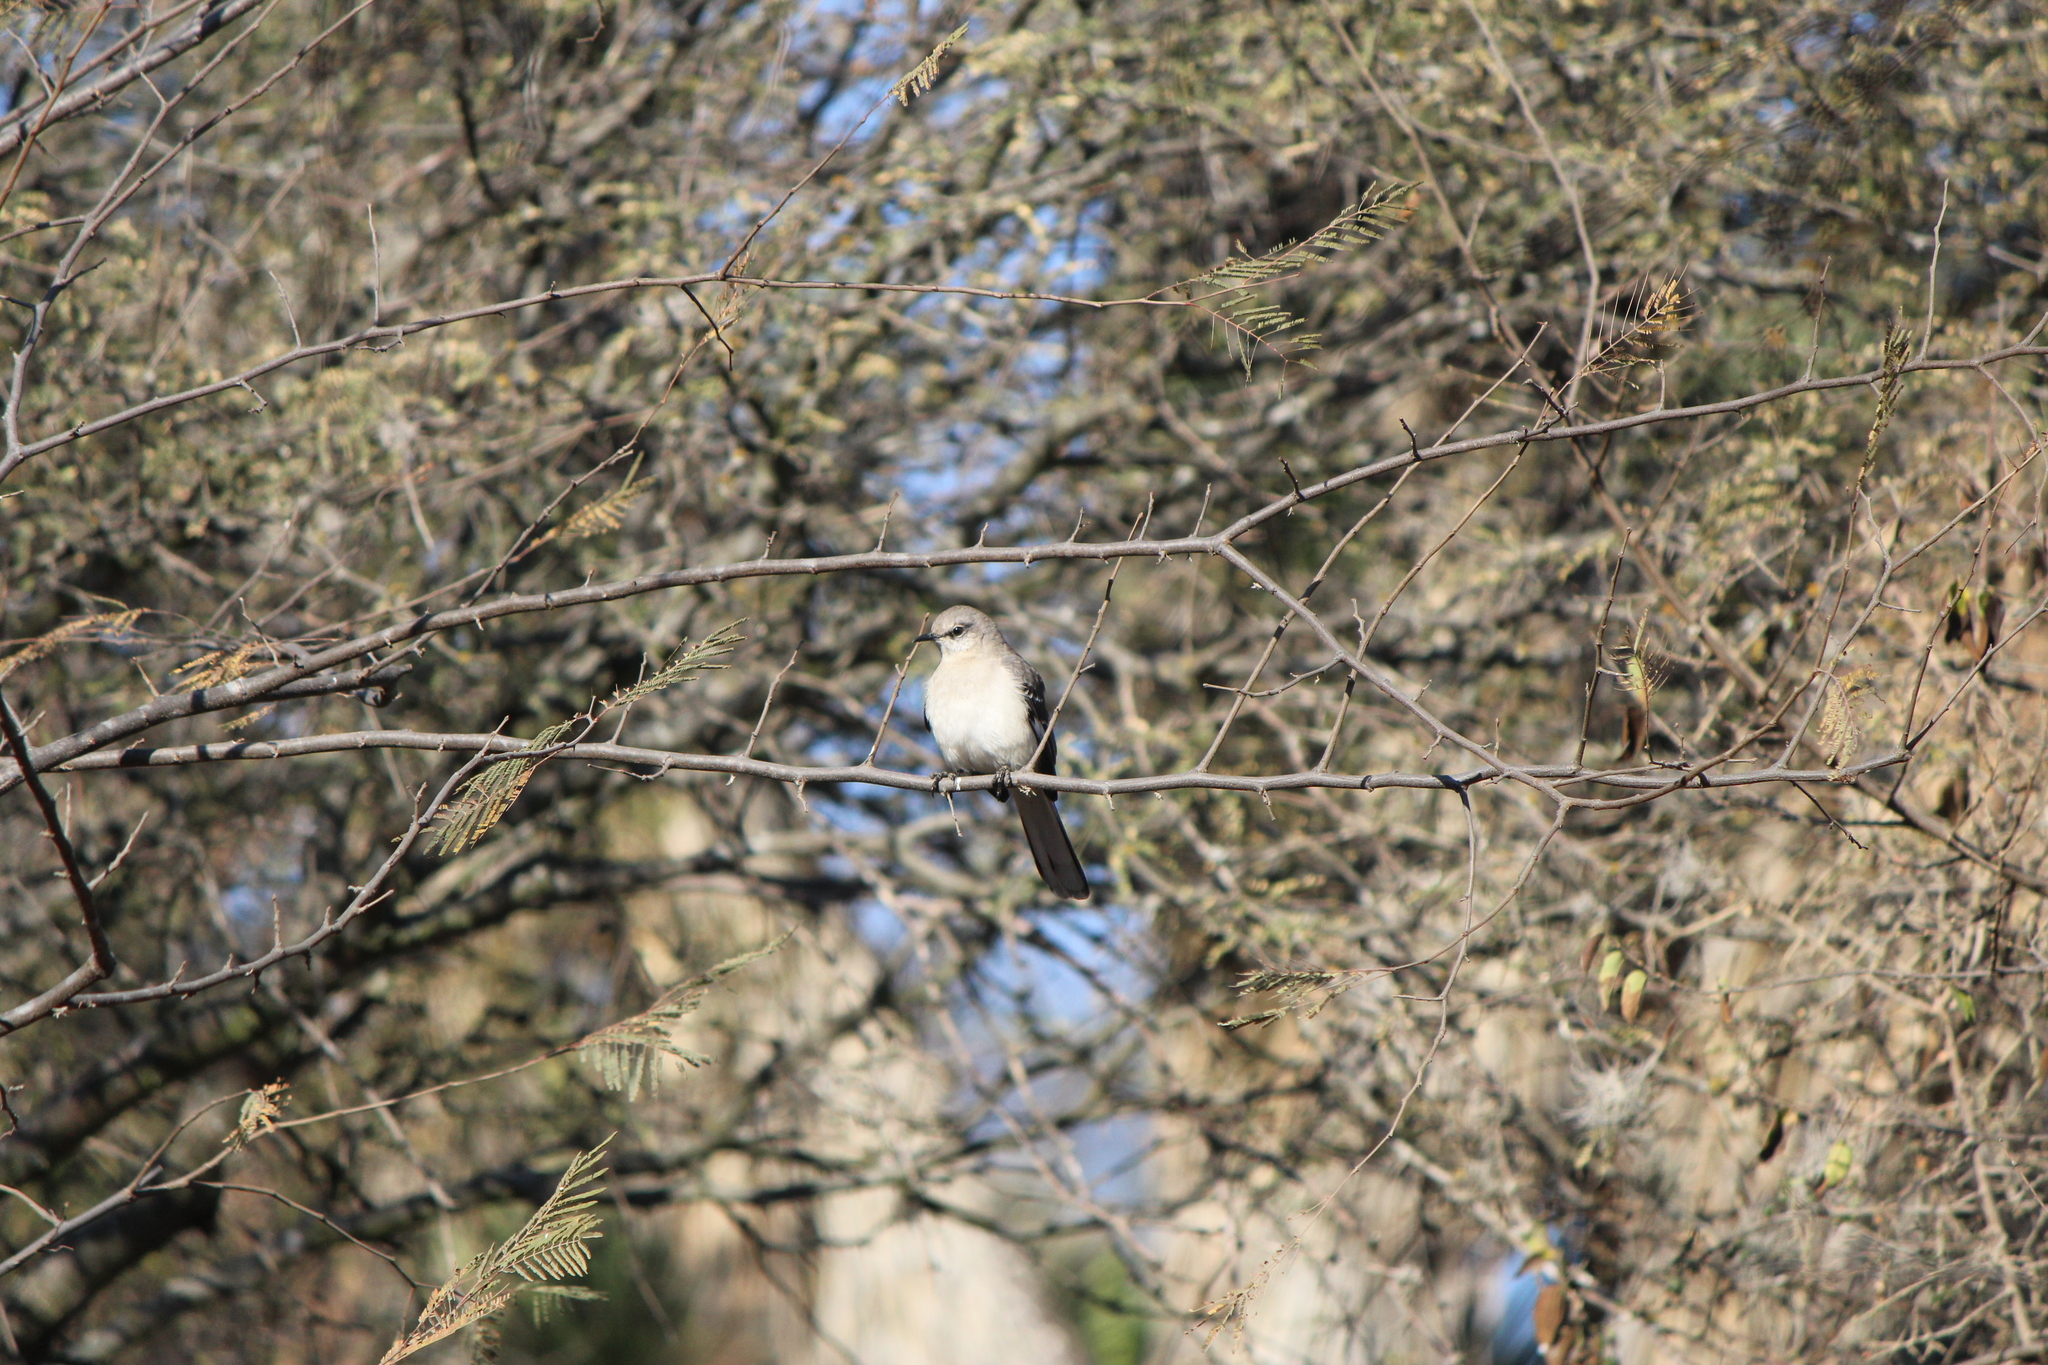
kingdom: Animalia
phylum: Chordata
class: Aves
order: Passeriformes
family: Mimidae
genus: Mimus
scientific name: Mimus polyglottos
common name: Northern mockingbird
